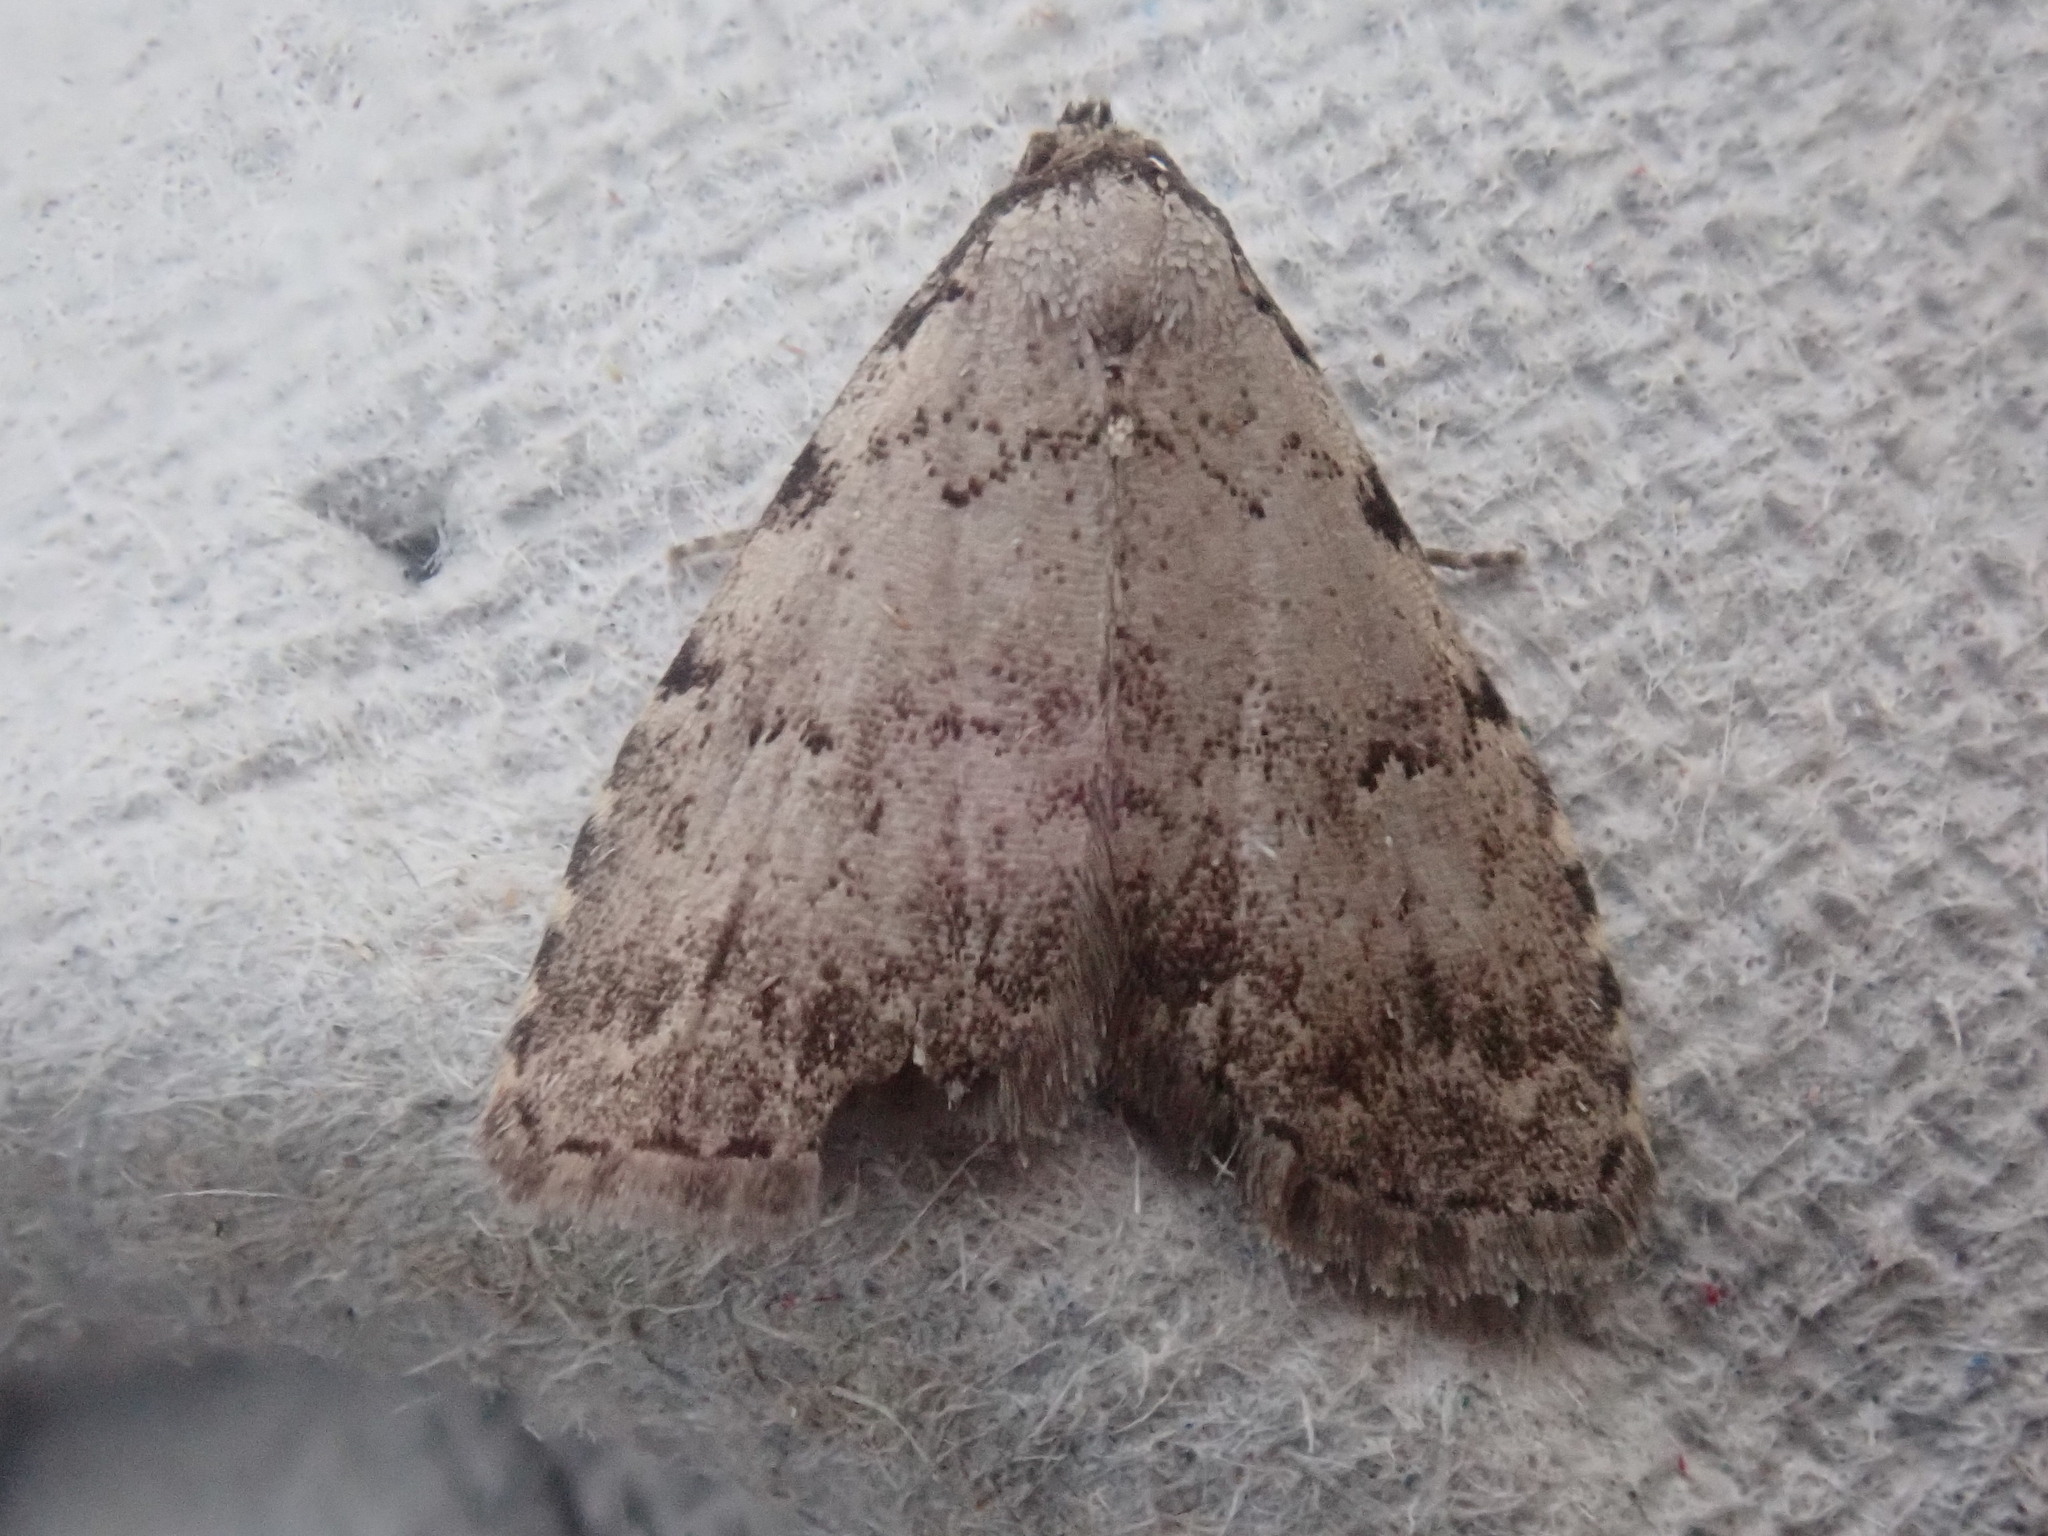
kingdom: Animalia
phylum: Arthropoda
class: Insecta
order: Lepidoptera
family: Erebidae
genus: Dyspyralis
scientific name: Dyspyralis puncticosta
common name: Spot-edged dyspyralis moth
